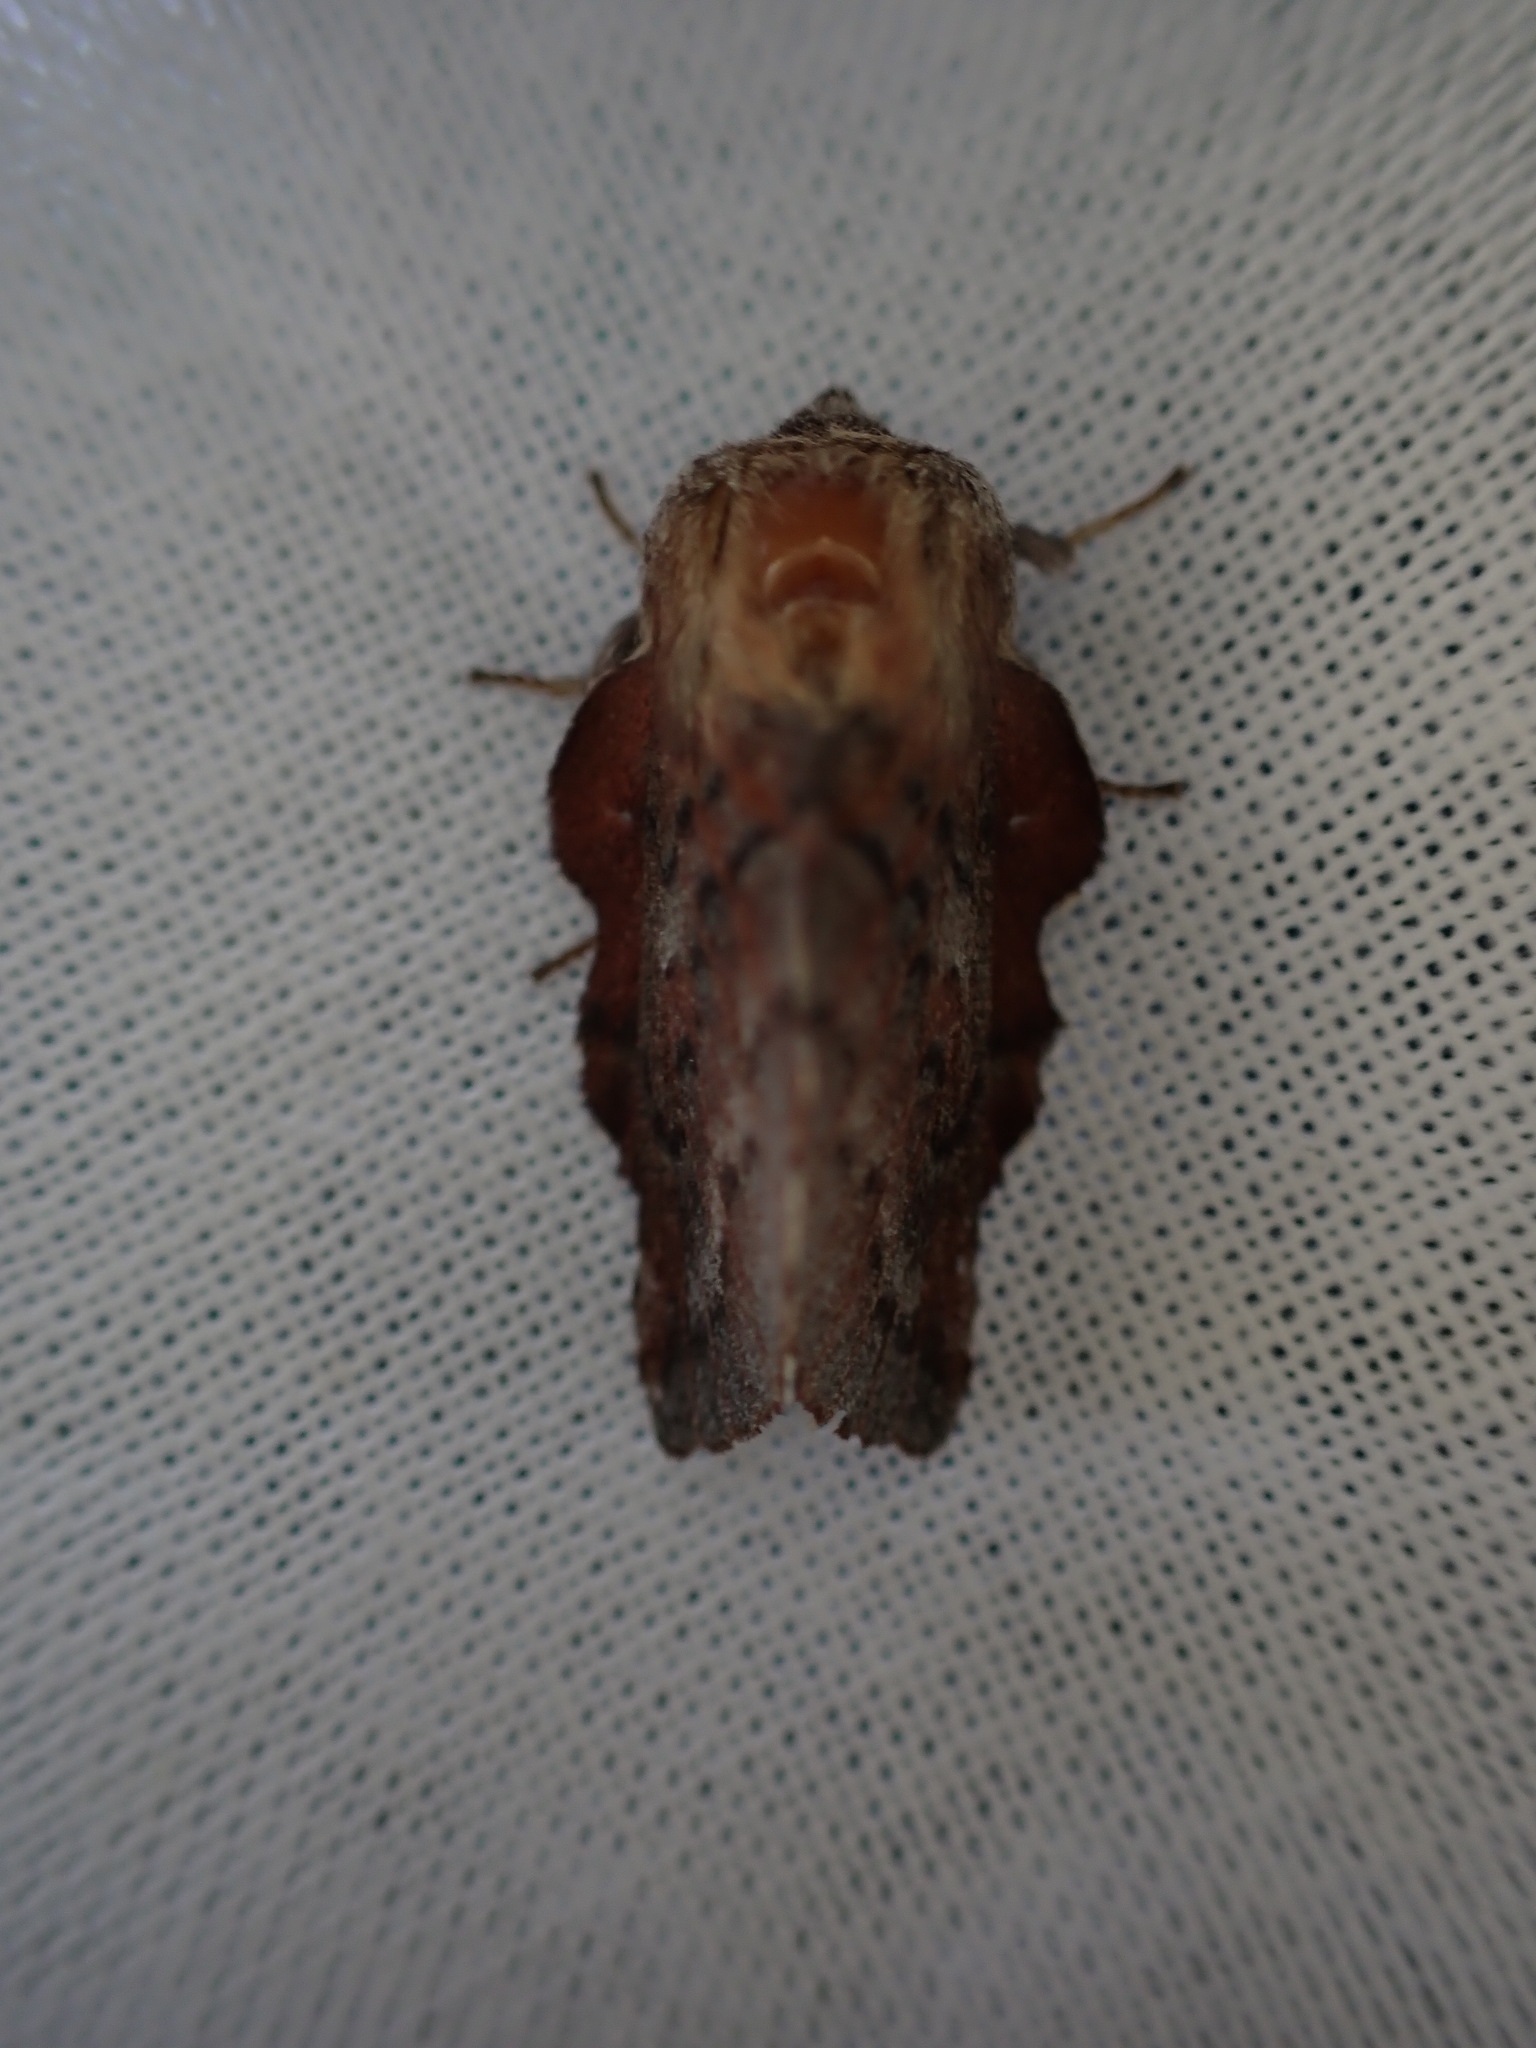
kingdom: Animalia
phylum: Arthropoda
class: Insecta
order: Lepidoptera
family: Lasiocampidae
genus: Phyllodesma
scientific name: Phyllodesma americana
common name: American lappet moth
